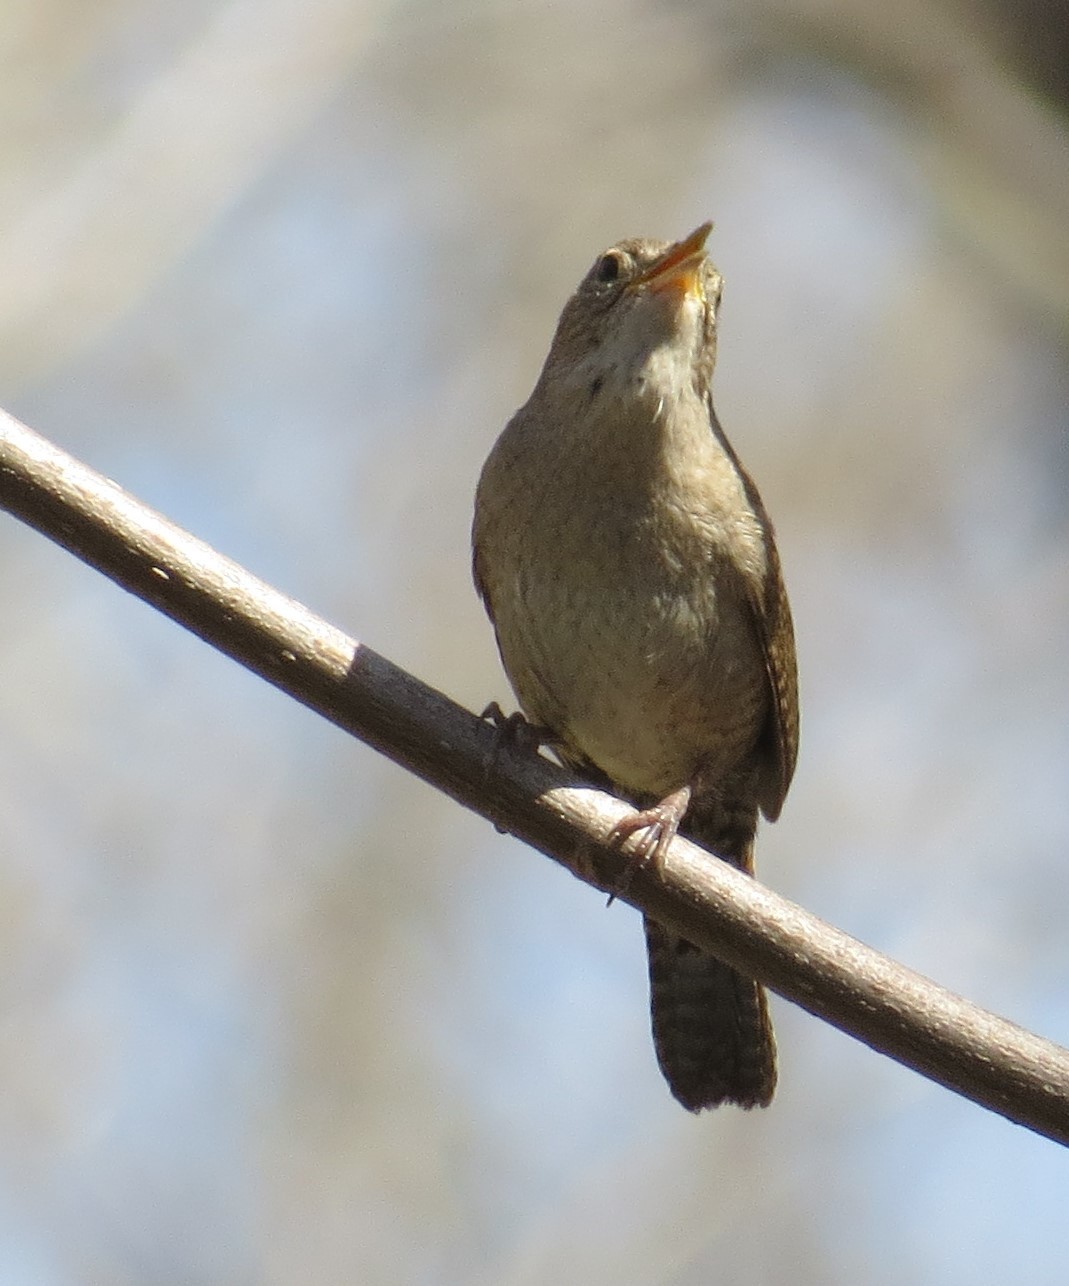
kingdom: Animalia
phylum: Chordata
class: Aves
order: Passeriformes
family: Troglodytidae
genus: Troglodytes
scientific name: Troglodytes aedon
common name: House wren
